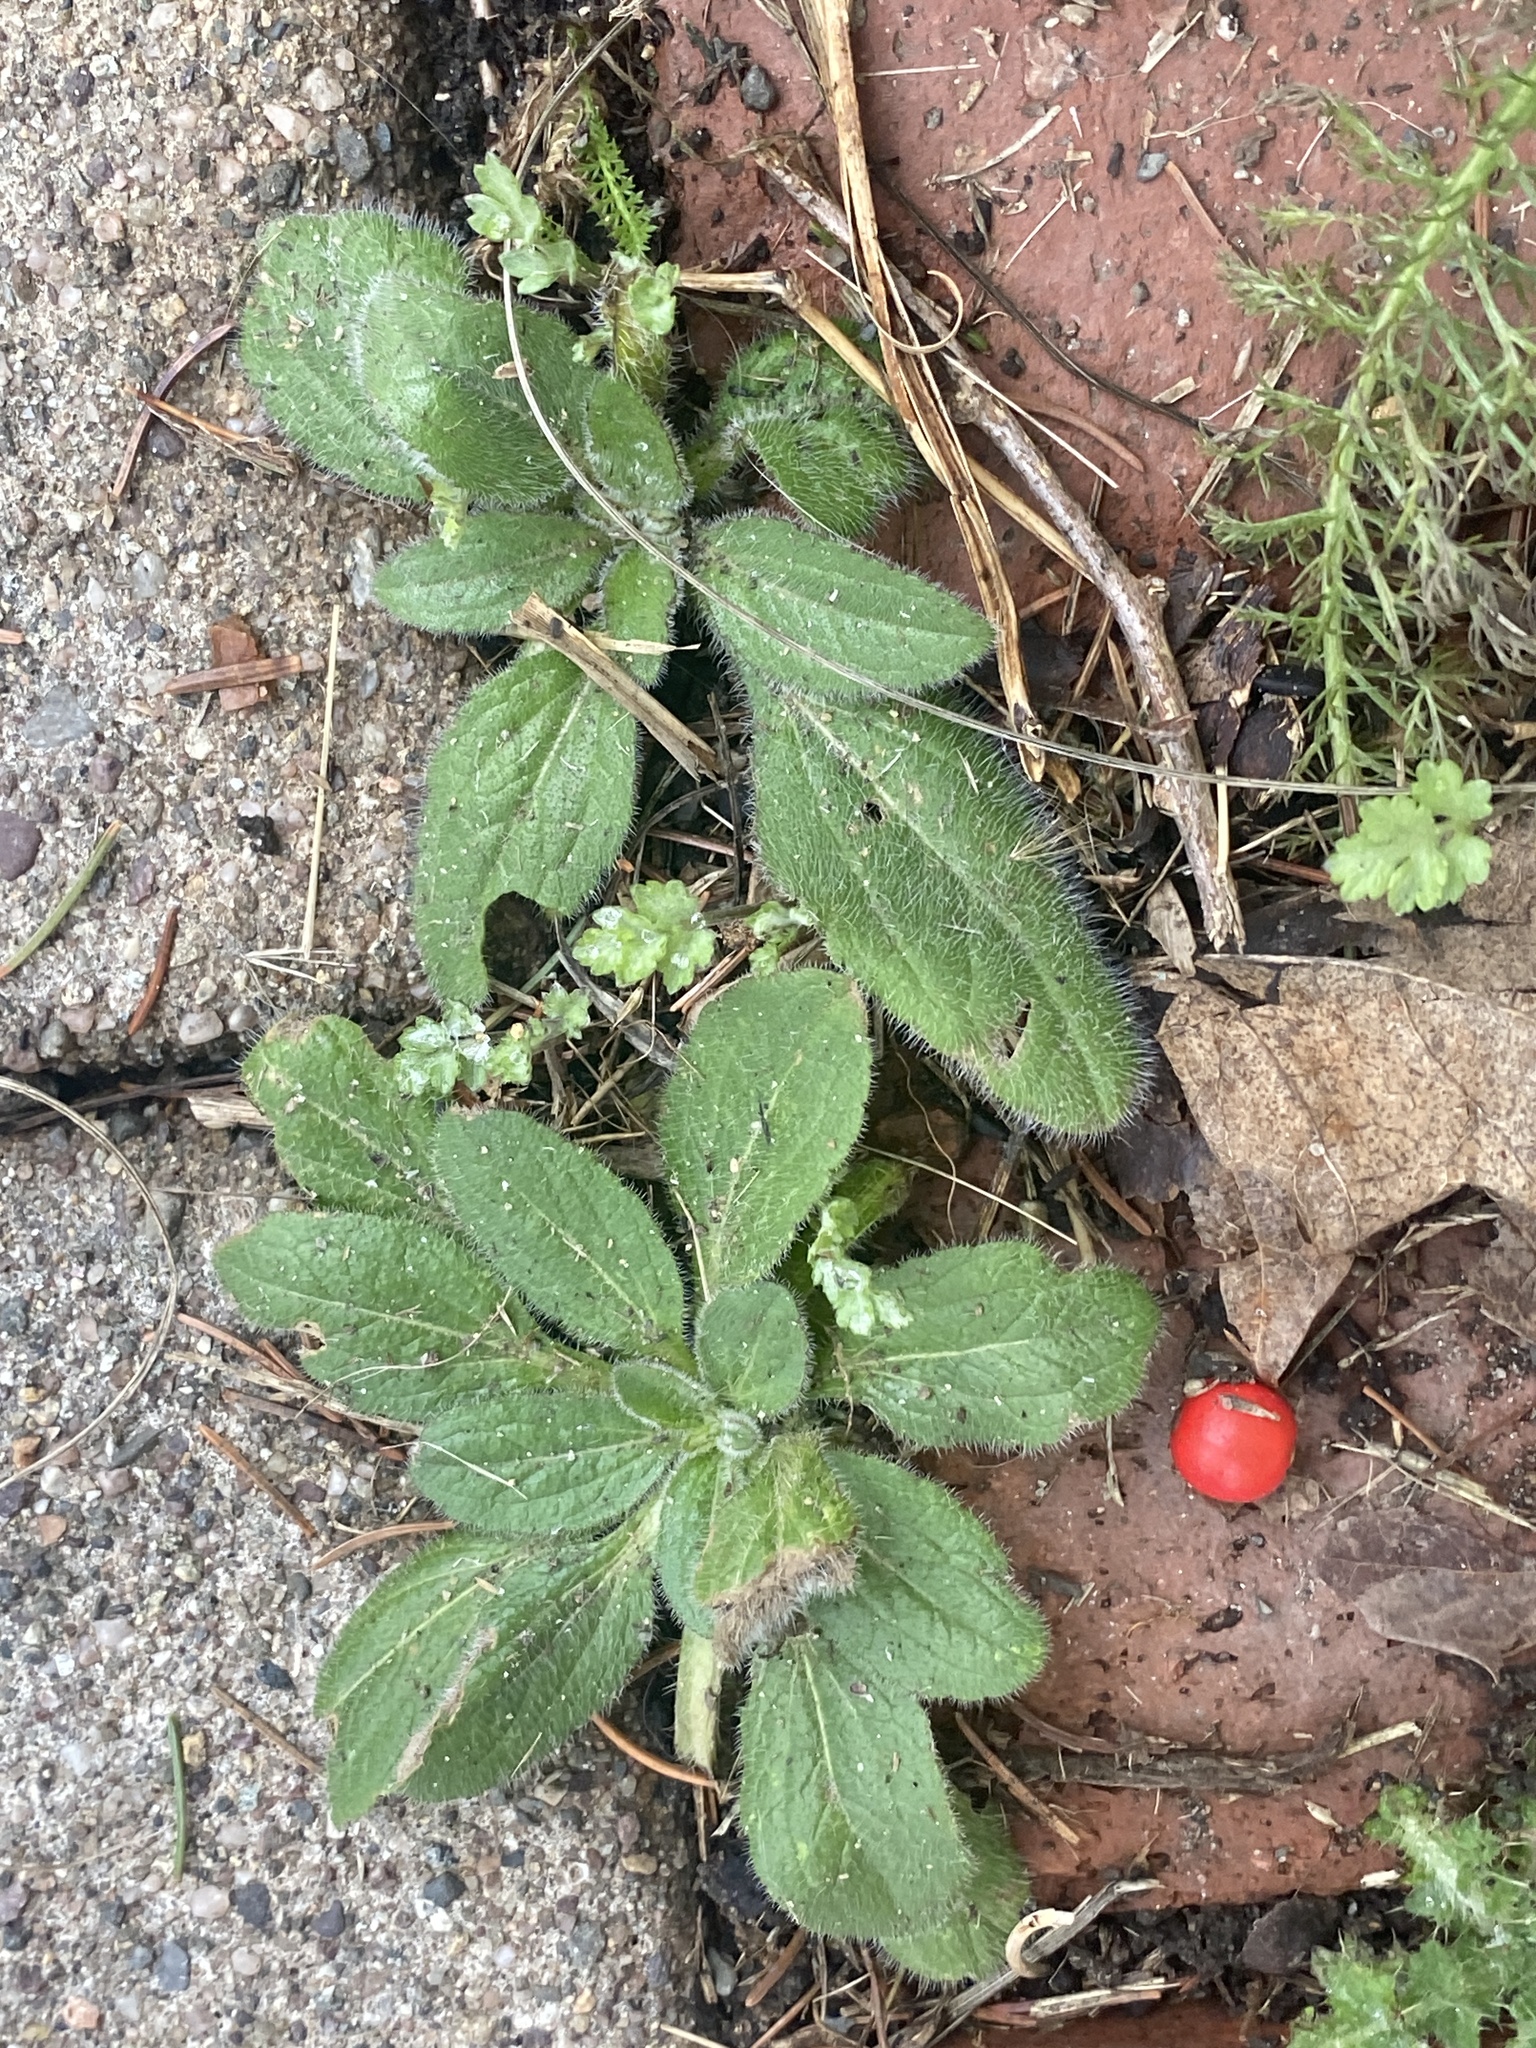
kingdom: Plantae
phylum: Tracheophyta
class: Magnoliopsida
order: Asterales
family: Asteraceae
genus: Rudbeckia
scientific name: Rudbeckia hirta
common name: Black-eyed-susan
